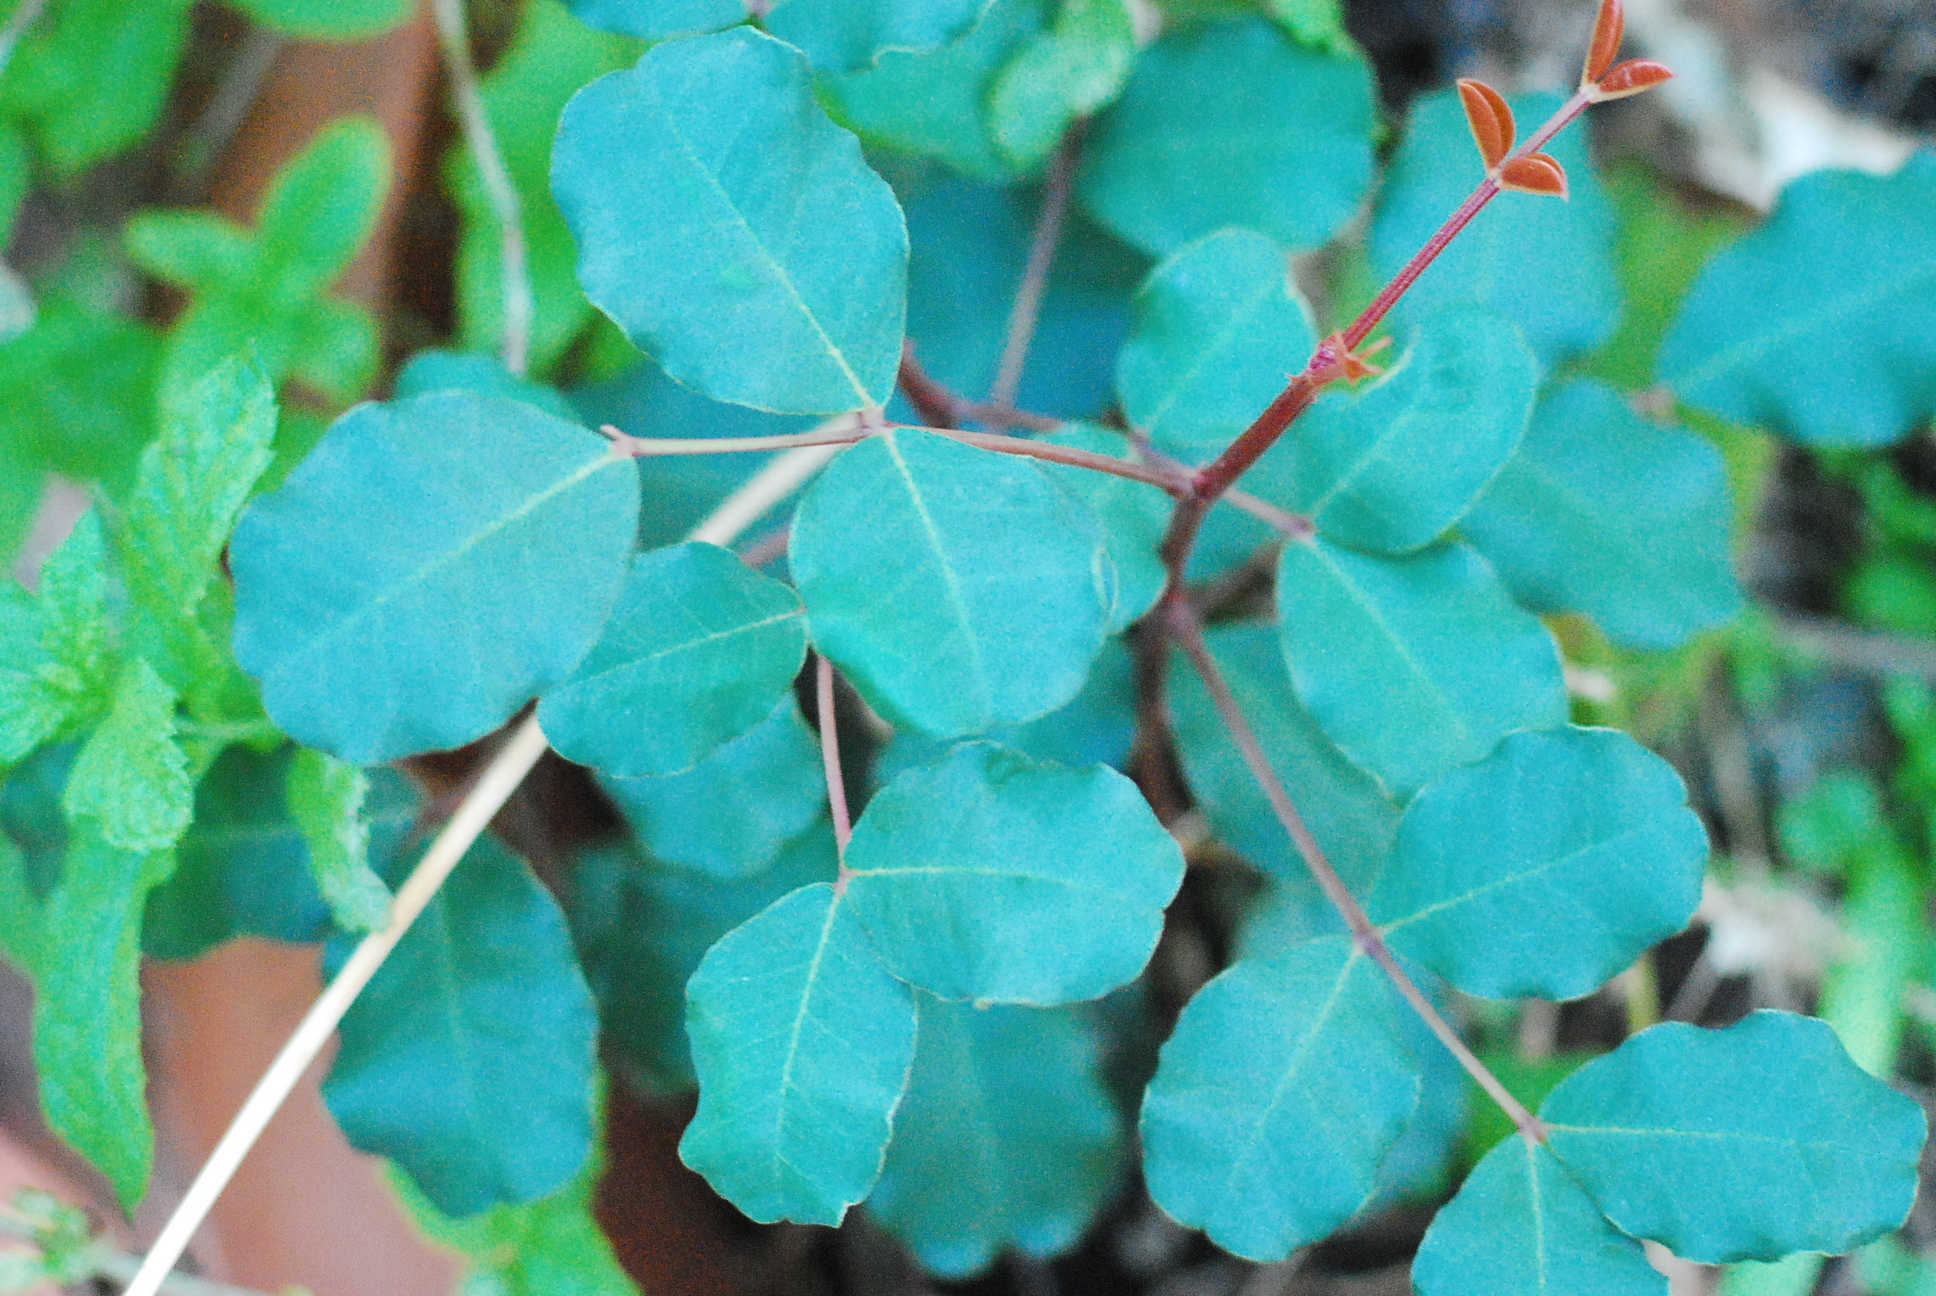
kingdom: Plantae
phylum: Tracheophyta
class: Magnoliopsida
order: Fabales
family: Fabaceae
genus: Ceratonia
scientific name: Ceratonia siliqua
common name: Carob
